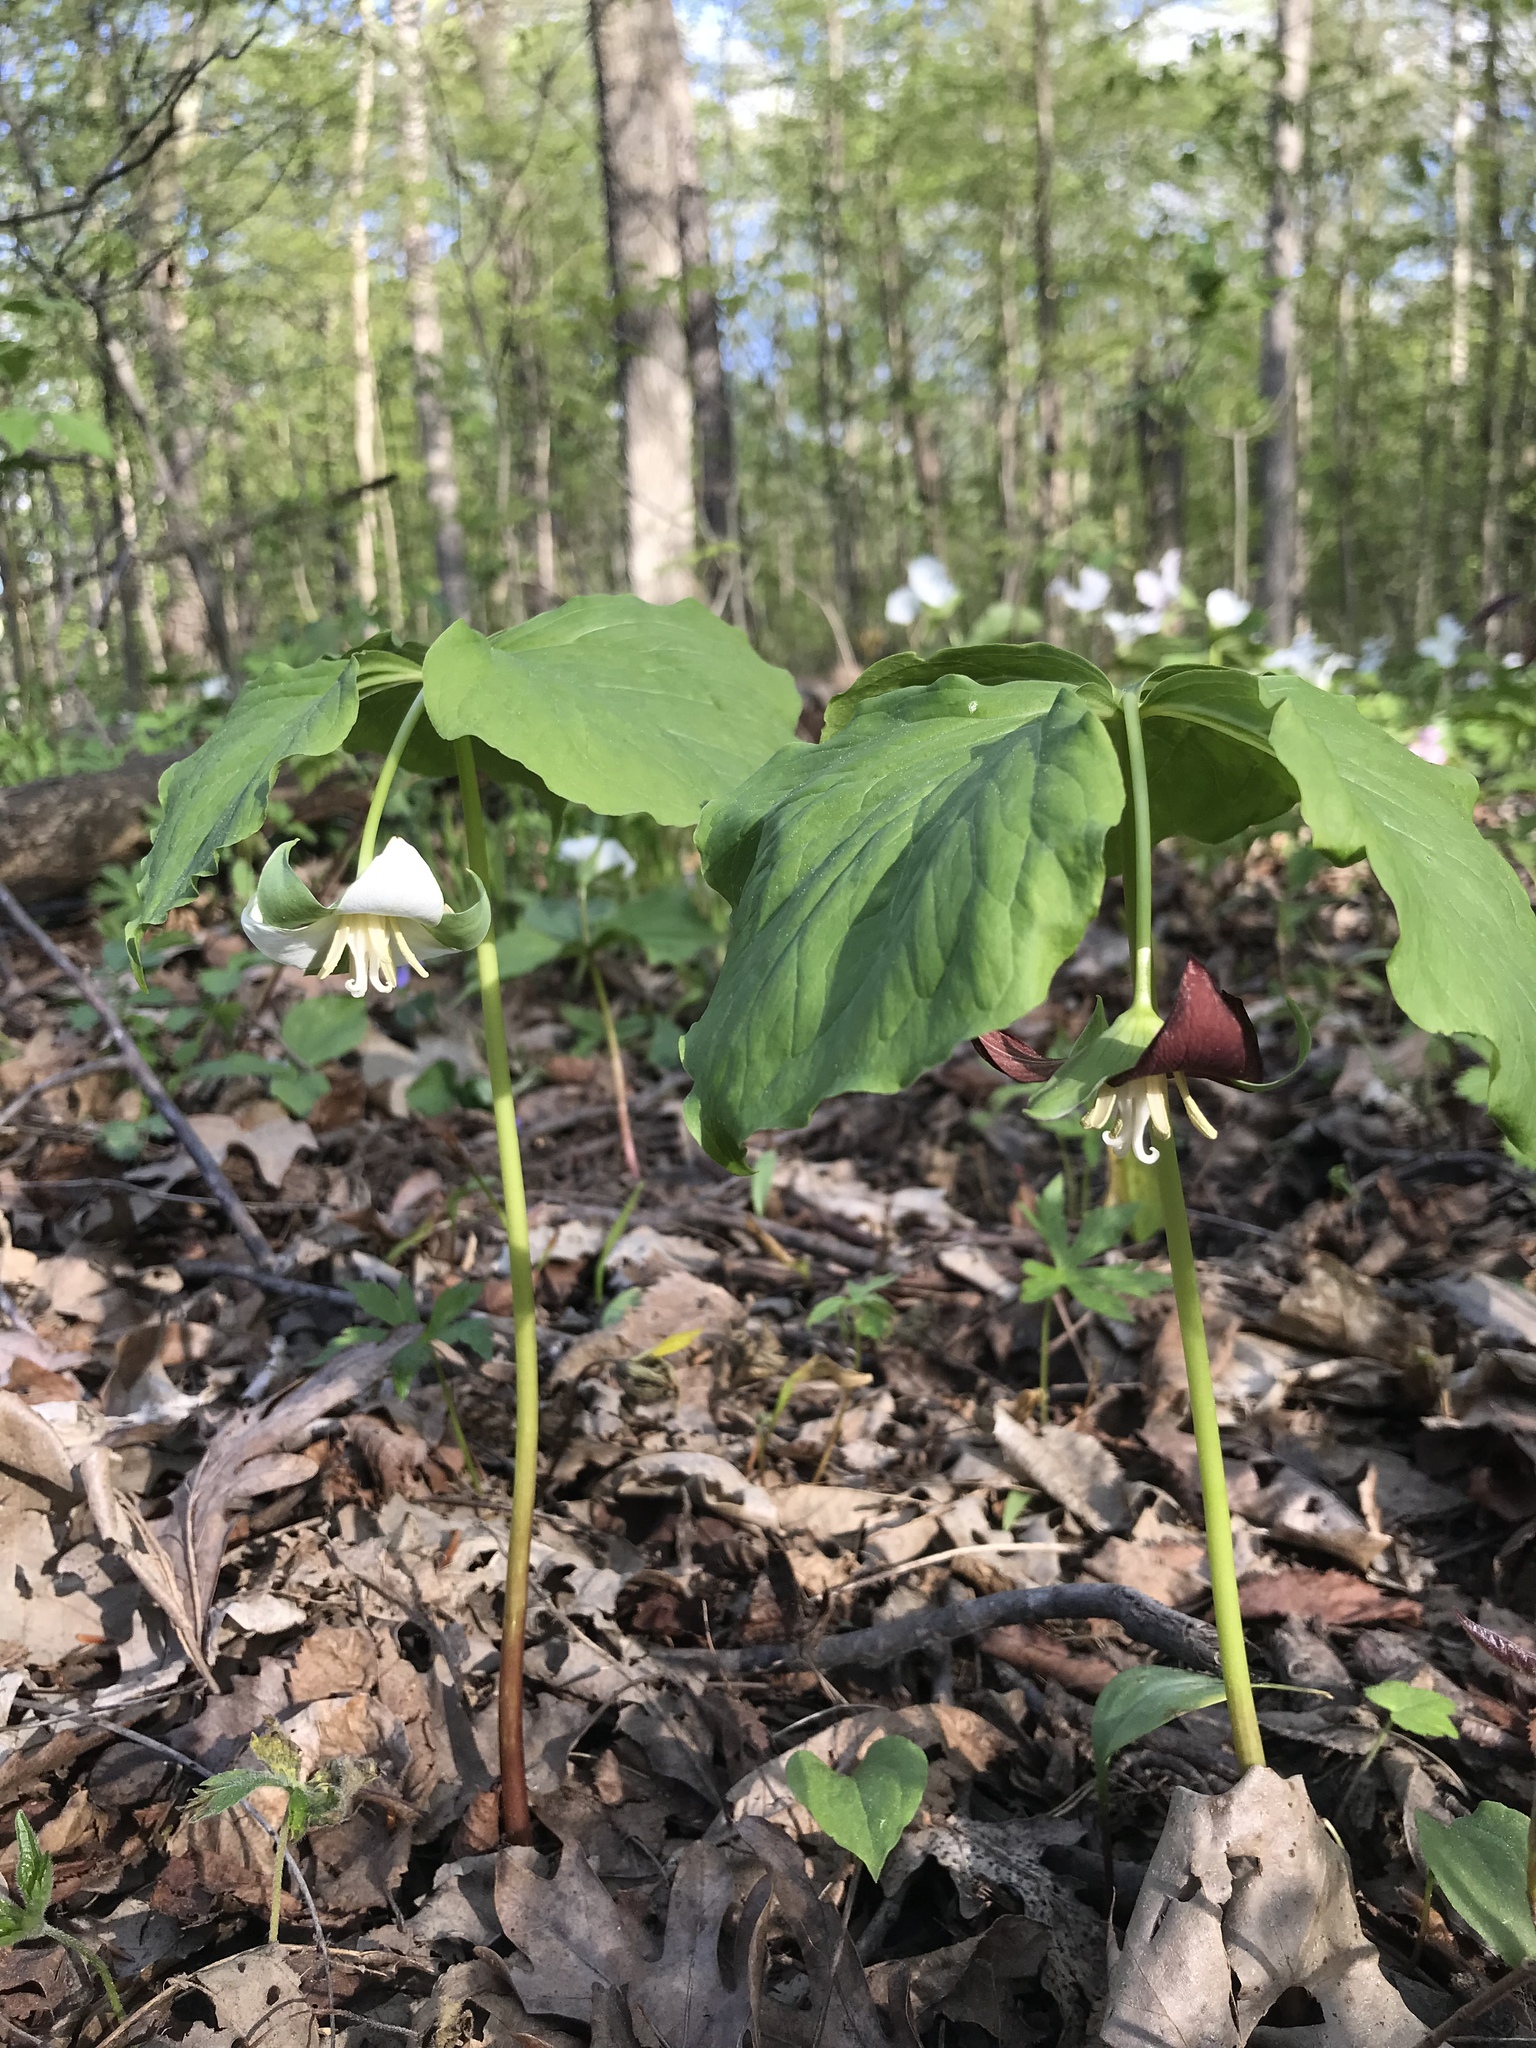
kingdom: Plantae
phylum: Tracheophyta
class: Liliopsida
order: Liliales
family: Melanthiaceae
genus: Trillium
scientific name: Trillium flexipes
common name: Drooping trillium
